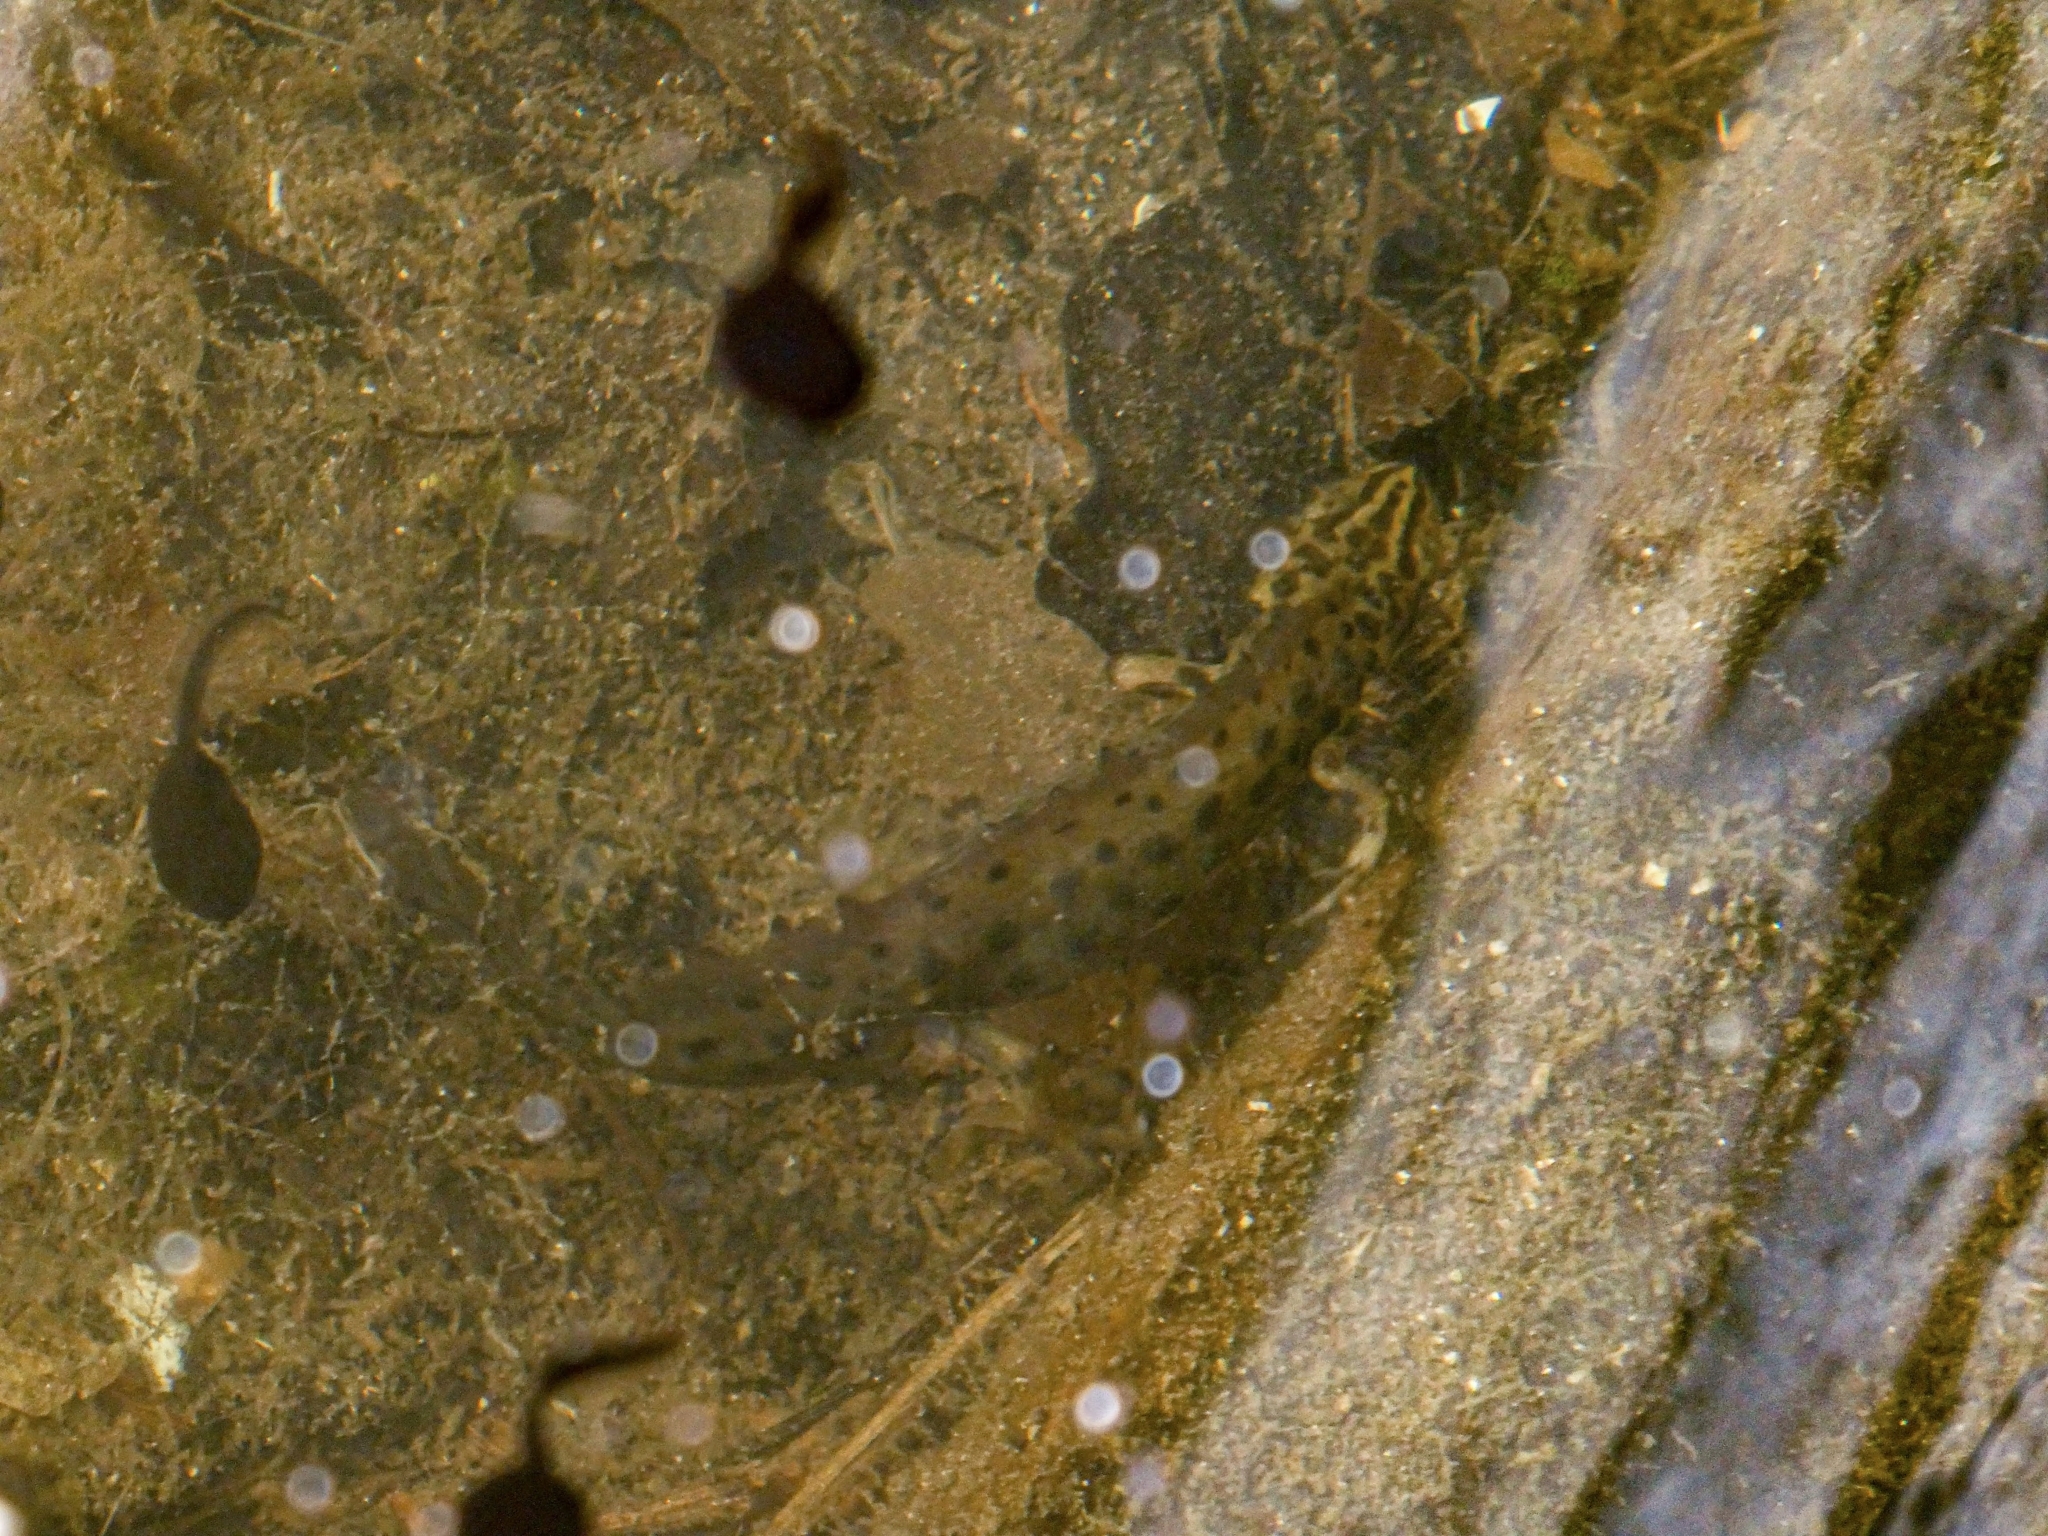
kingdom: Animalia
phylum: Chordata
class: Amphibia
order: Caudata
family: Salamandridae
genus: Lissotriton
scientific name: Lissotriton vulgaris
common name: Smooth newt
